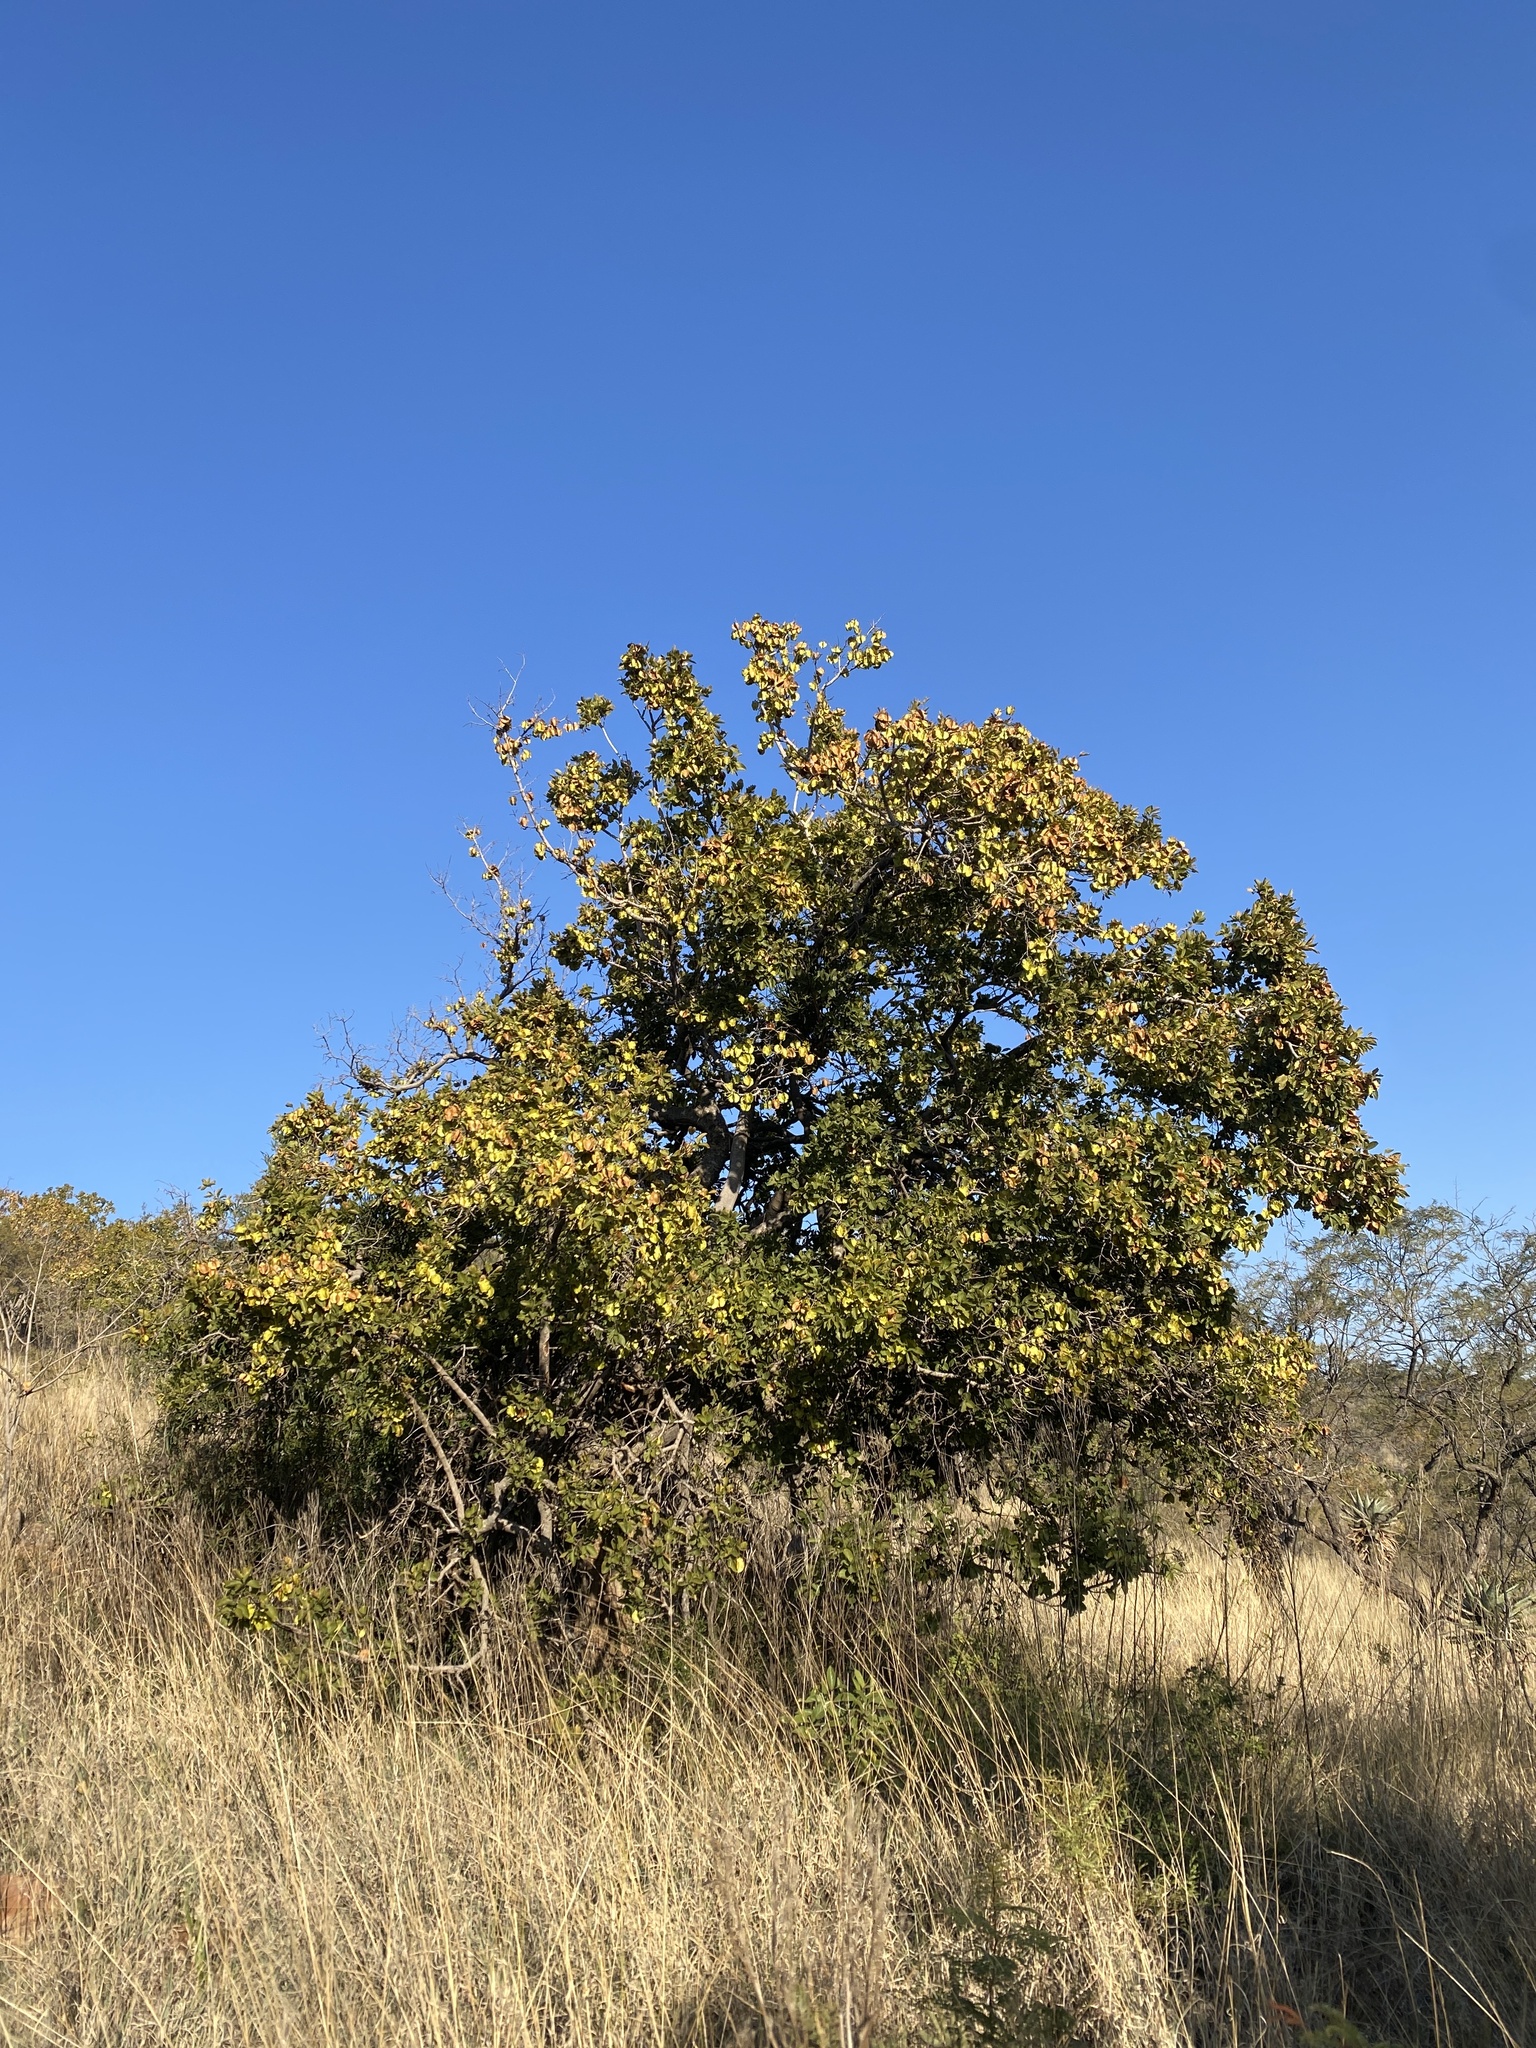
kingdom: Plantae
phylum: Tracheophyta
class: Magnoliopsida
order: Myrtales
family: Combretaceae
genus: Combretum
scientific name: Combretum zeyheri
